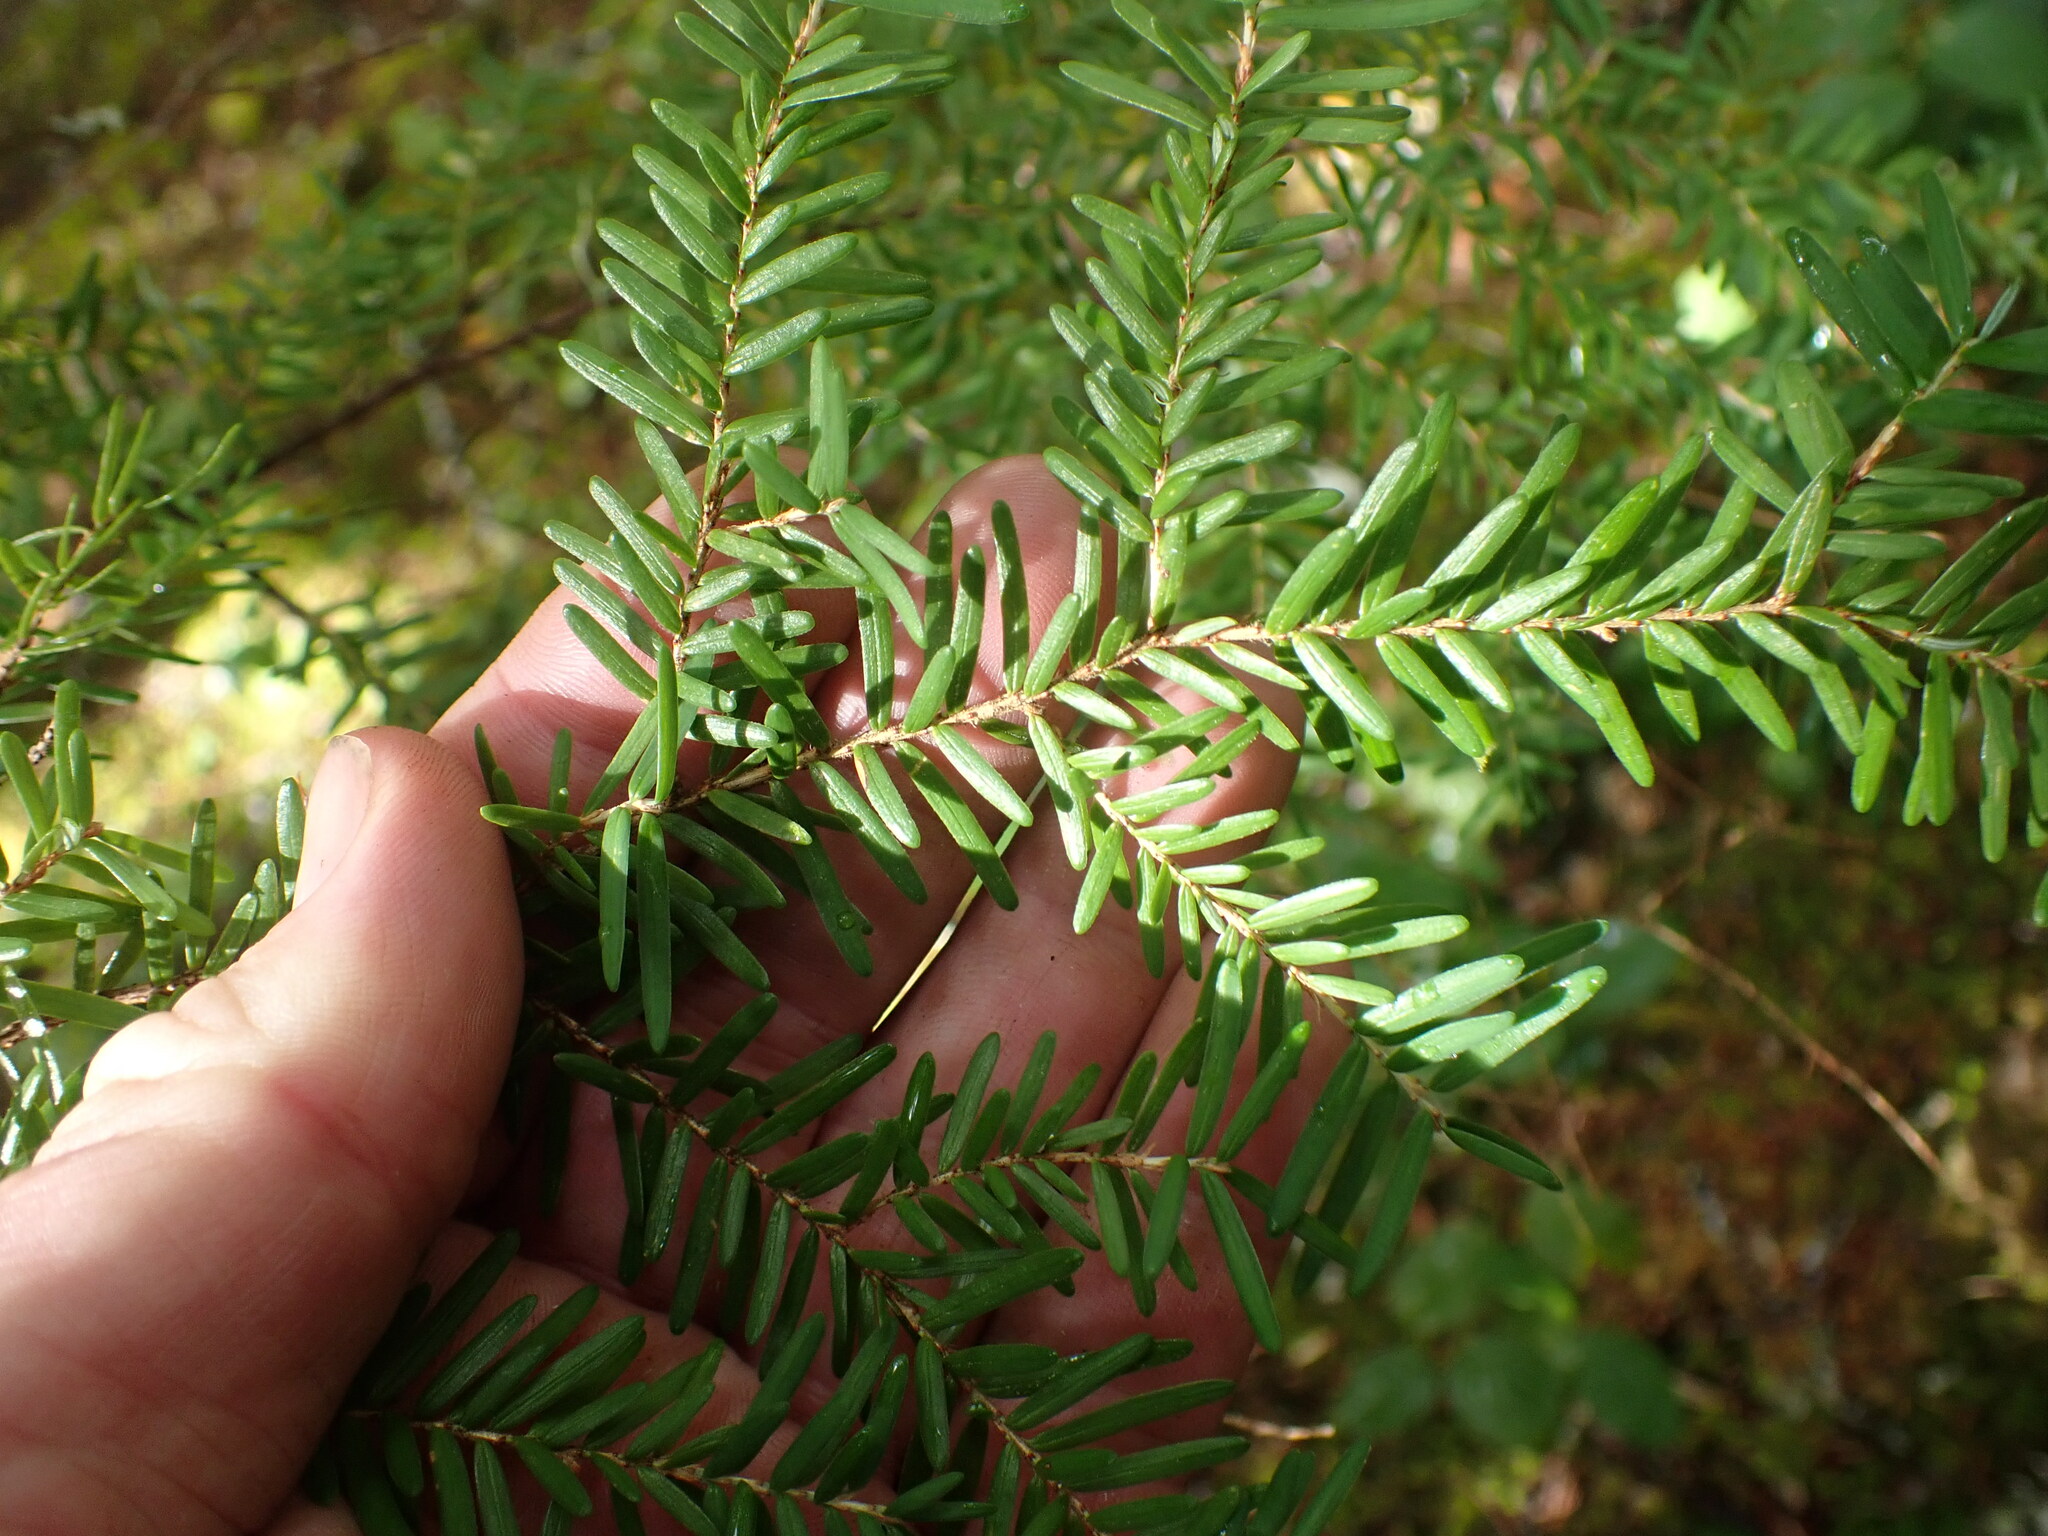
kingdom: Plantae
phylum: Tracheophyta
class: Pinopsida
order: Pinales
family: Pinaceae
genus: Tsuga
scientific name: Tsuga heterophylla
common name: Western hemlock
